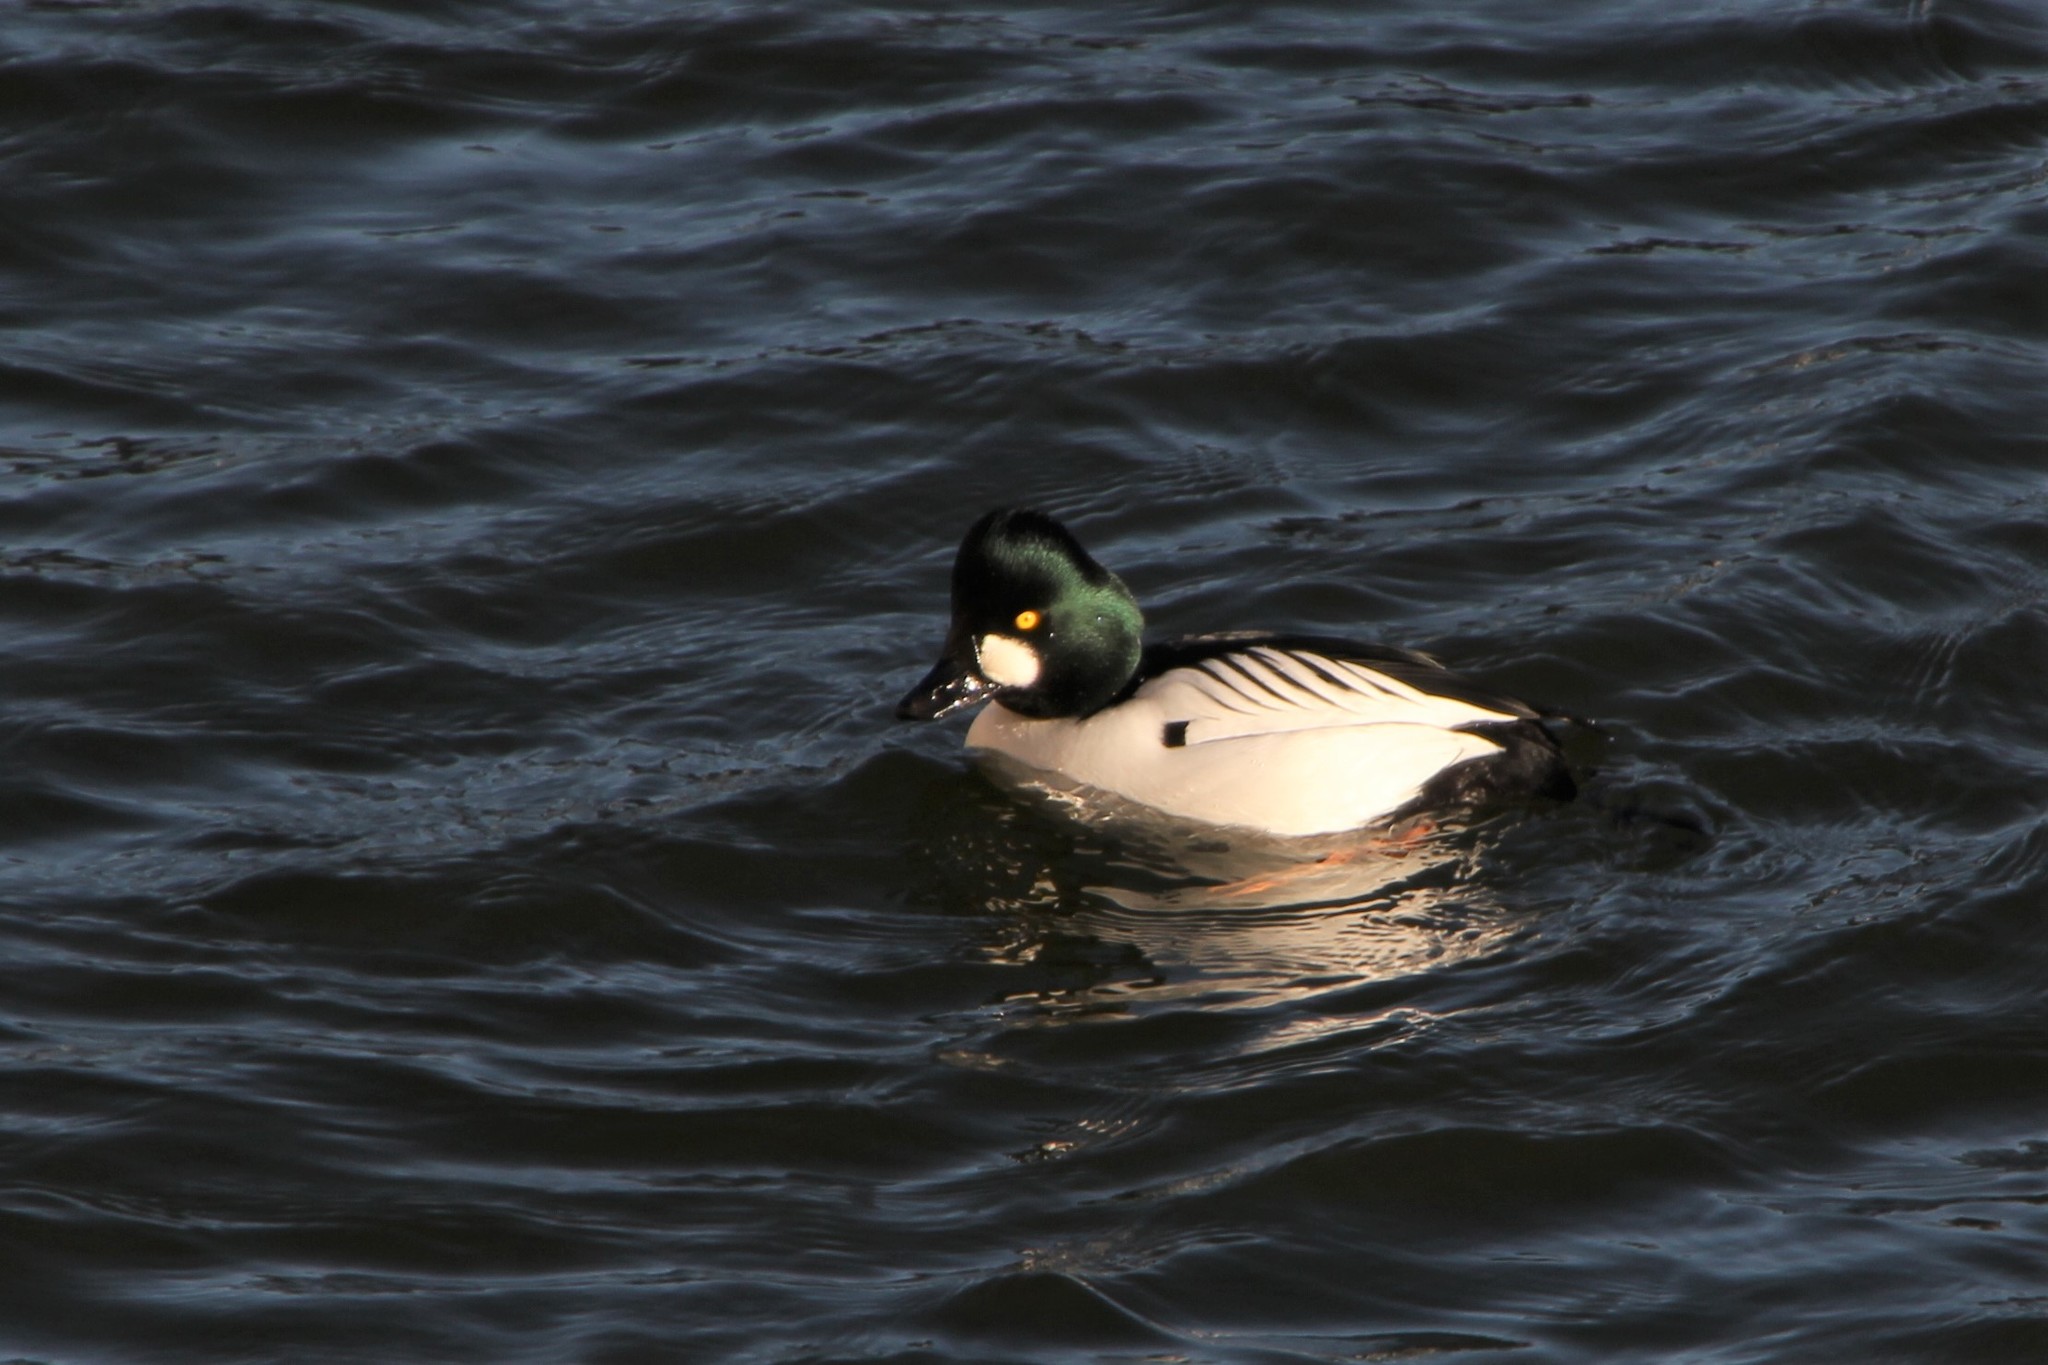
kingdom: Animalia
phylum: Chordata
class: Aves
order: Anseriformes
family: Anatidae
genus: Bucephala
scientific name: Bucephala clangula
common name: Common goldeneye
